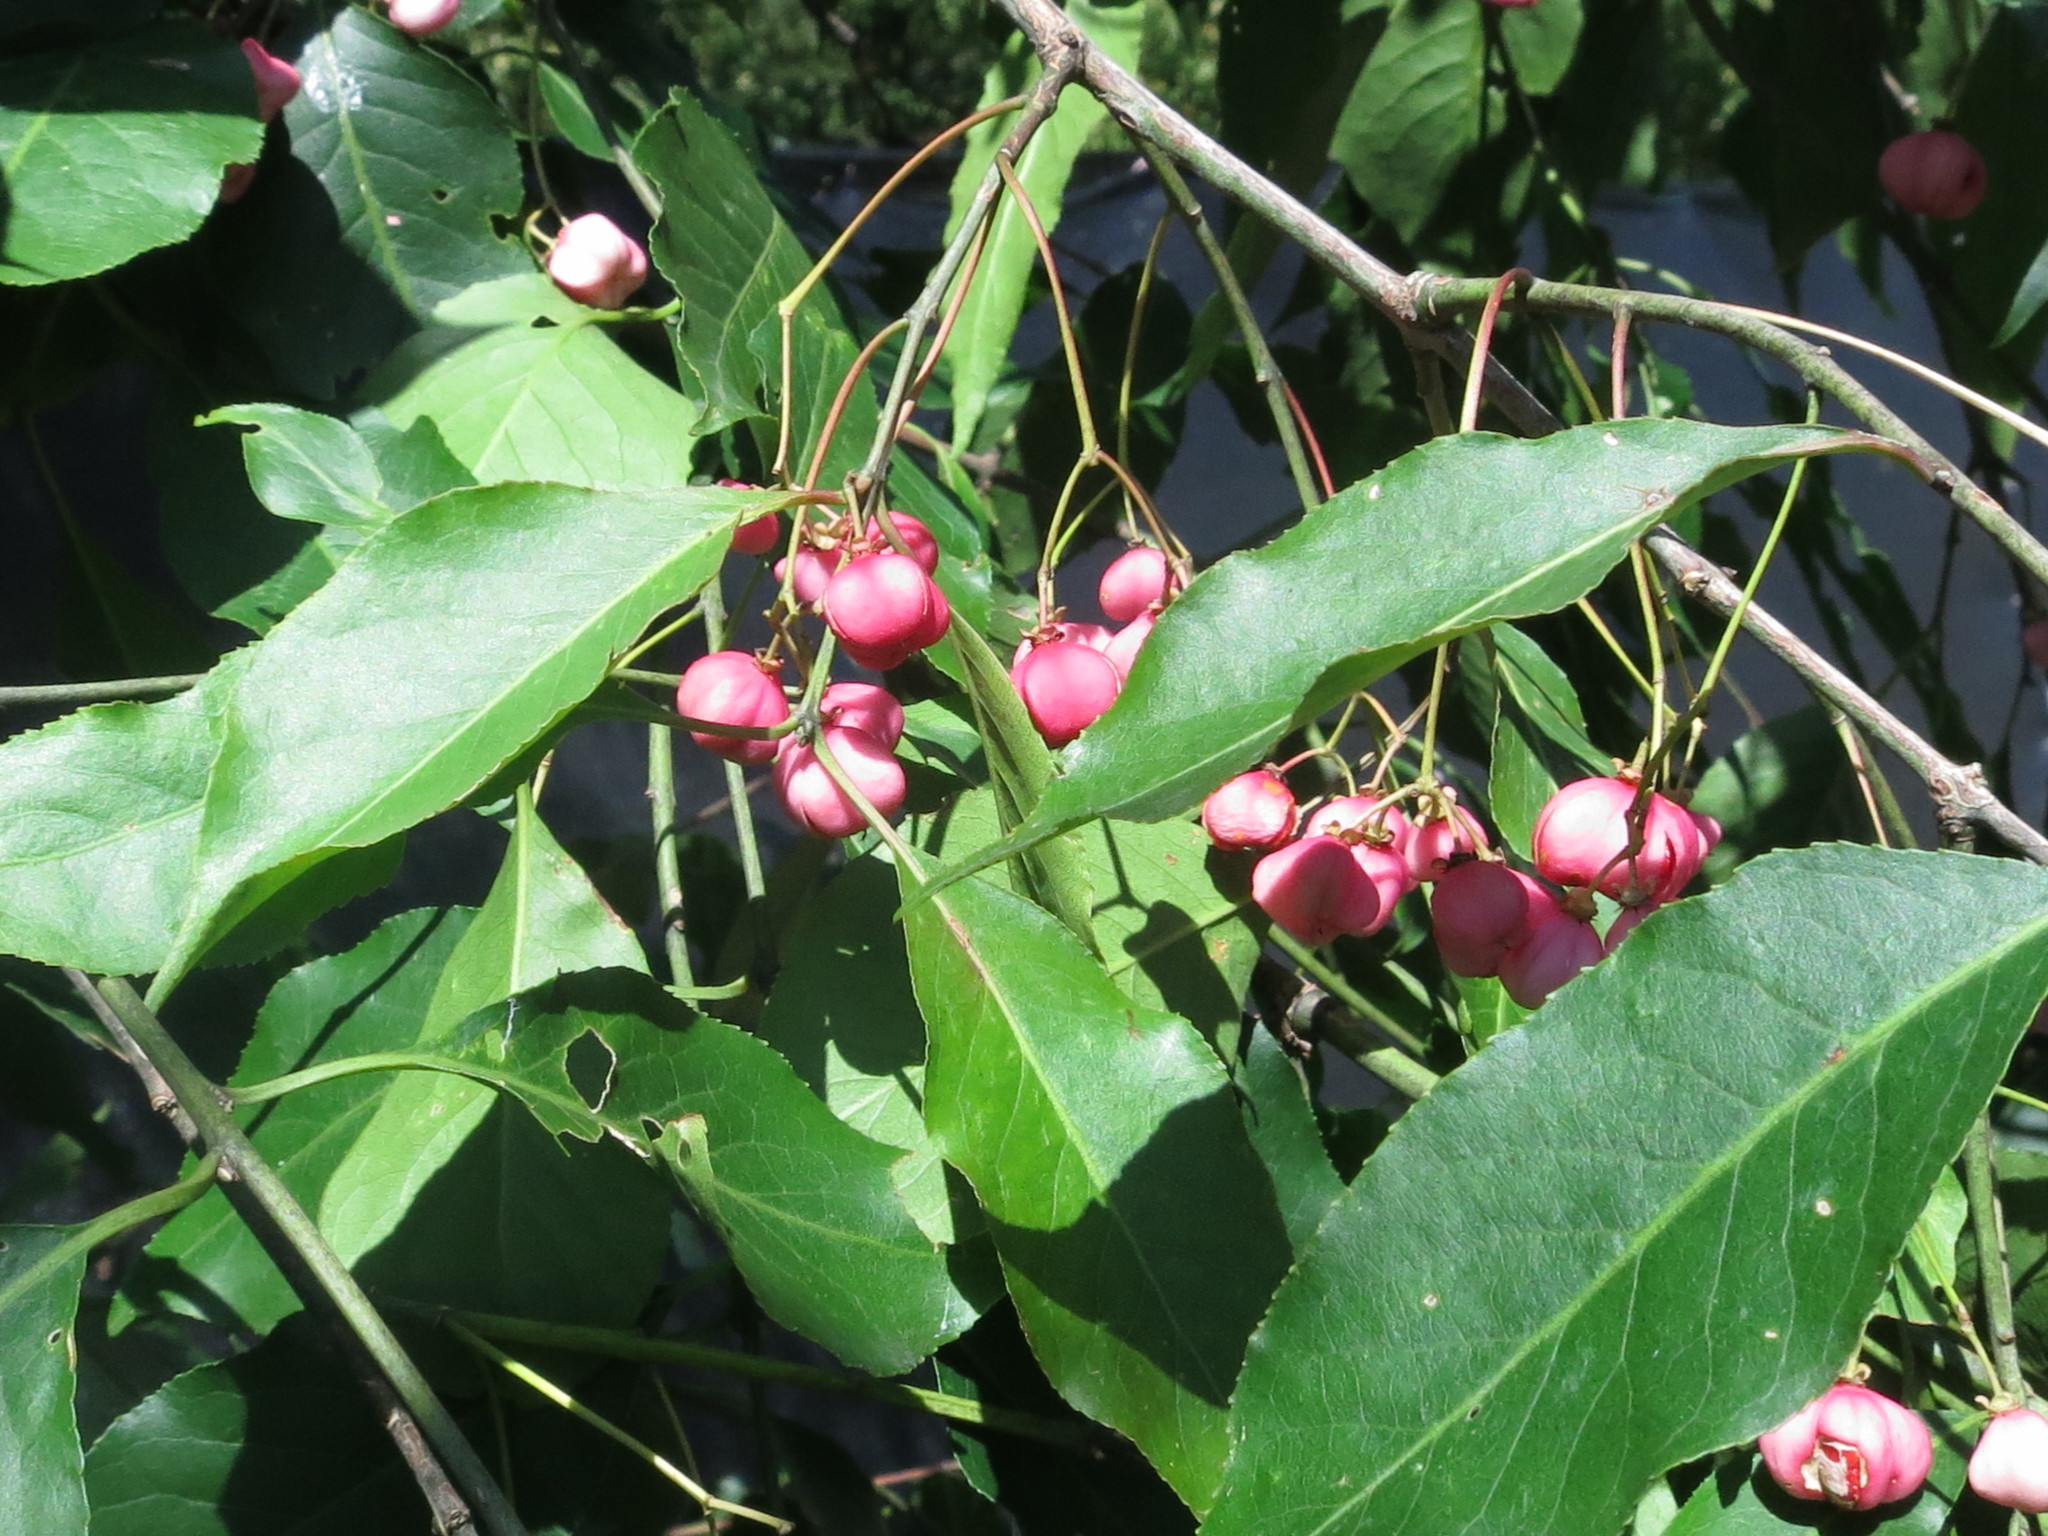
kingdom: Plantae
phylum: Tracheophyta
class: Magnoliopsida
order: Celastrales
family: Celastraceae
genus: Euonymus
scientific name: Euonymus maackii
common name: Hamilton's spindletree
